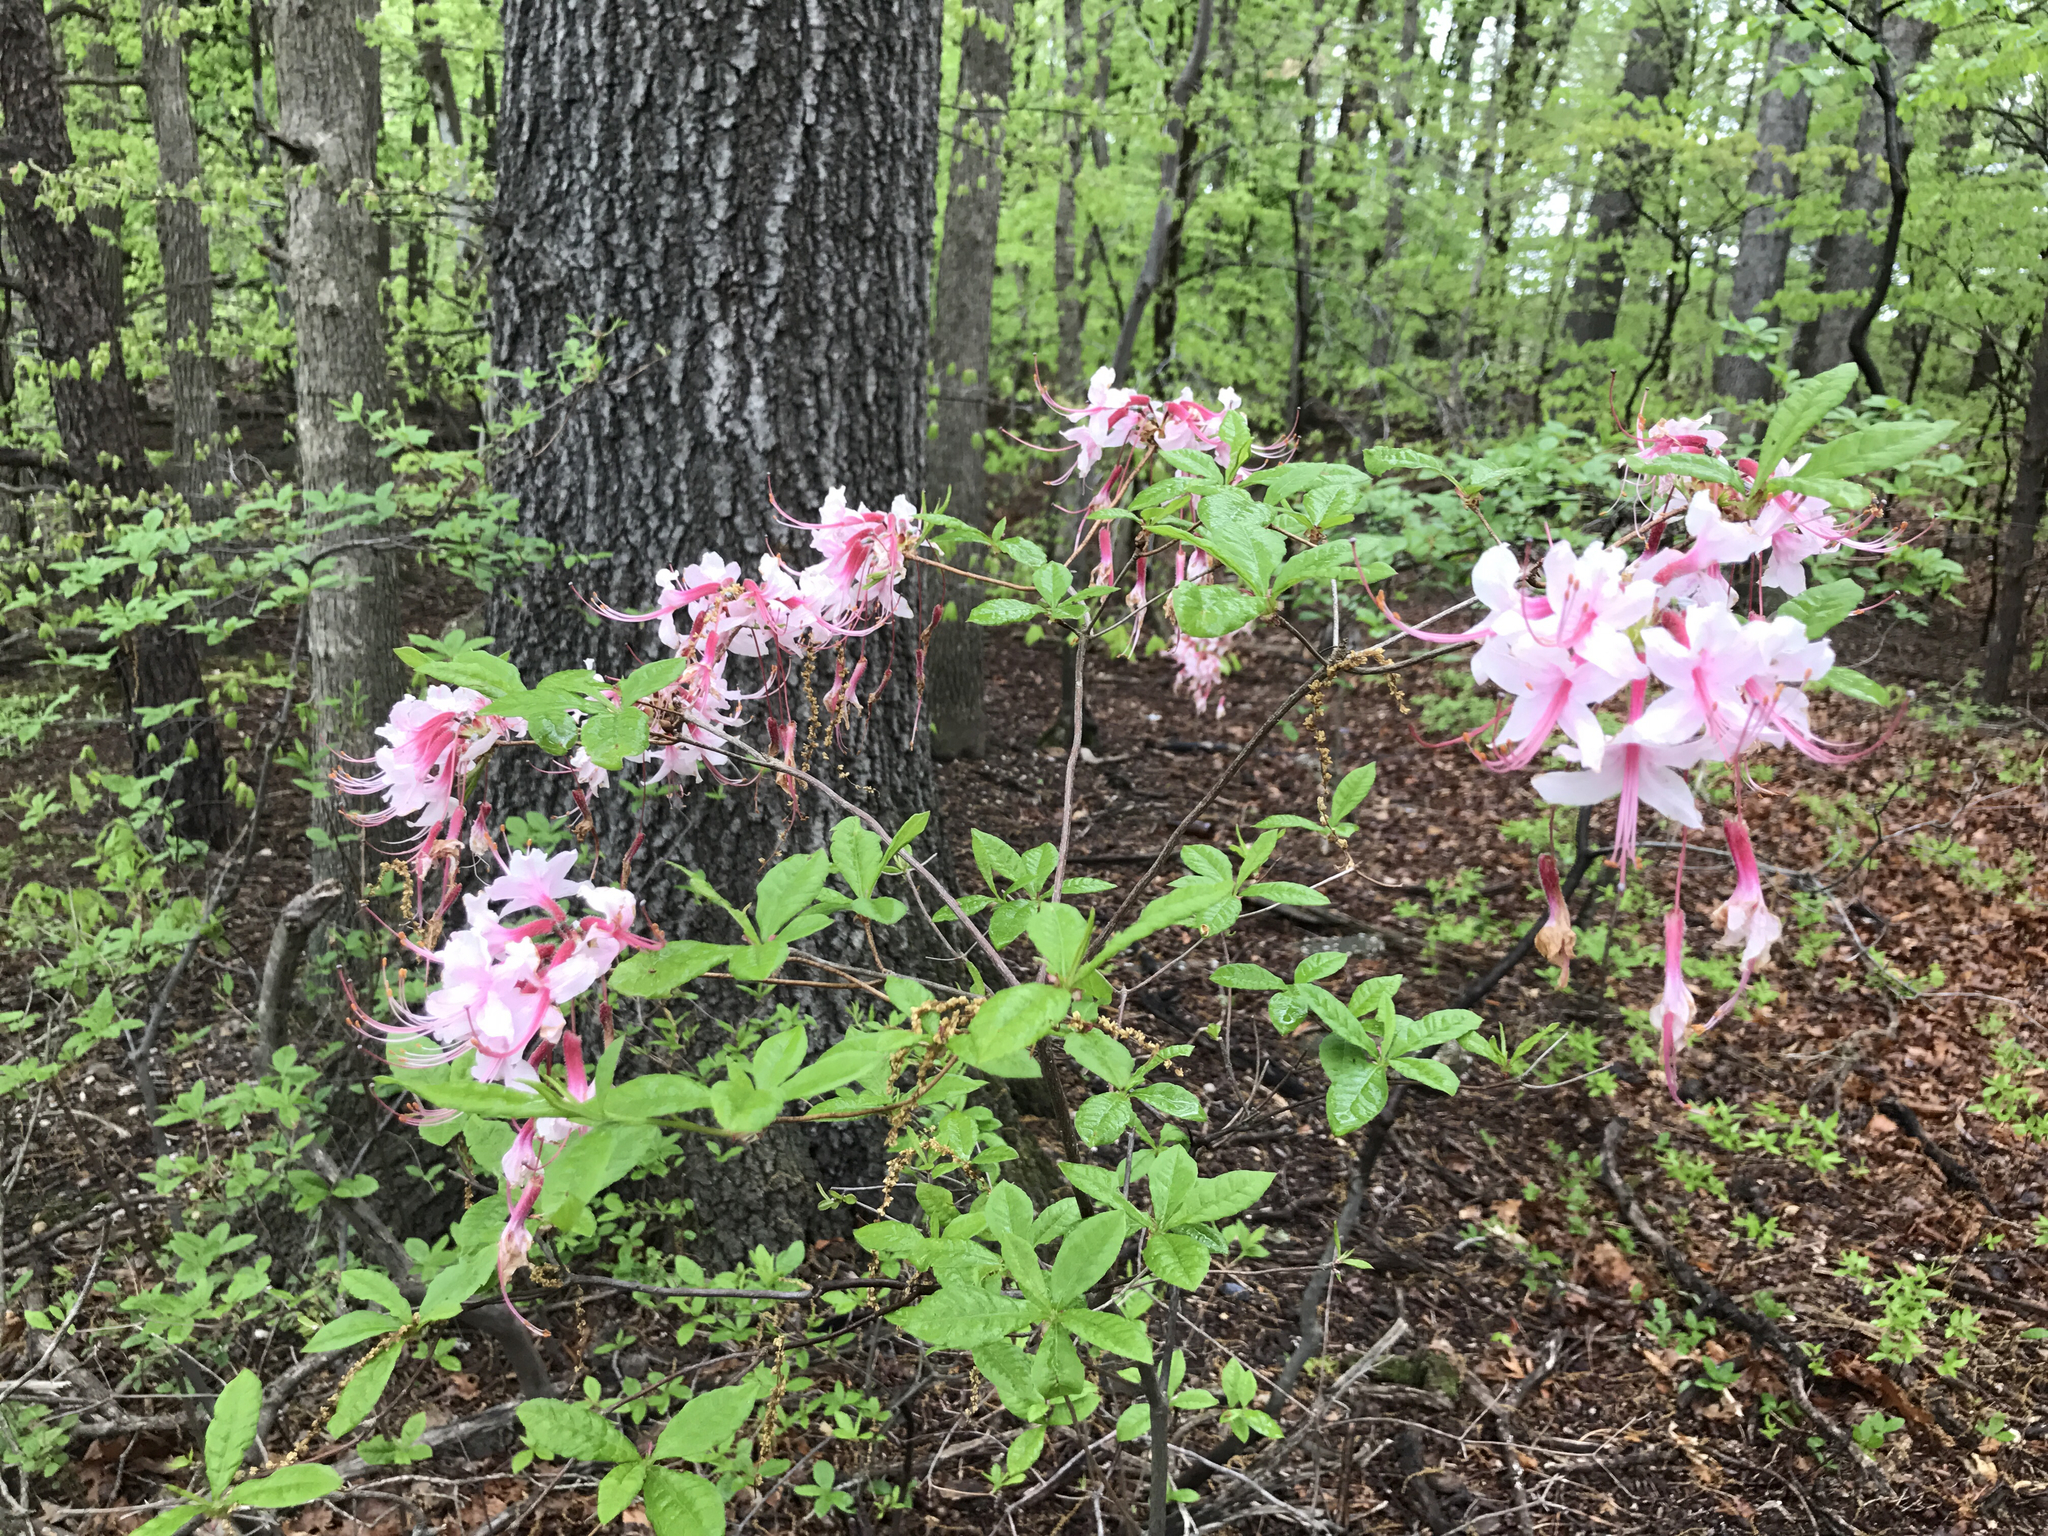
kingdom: Plantae
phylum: Tracheophyta
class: Magnoliopsida
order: Ericales
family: Ericaceae
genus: Rhododendron
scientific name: Rhododendron periclymenoides
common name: Election-pink
